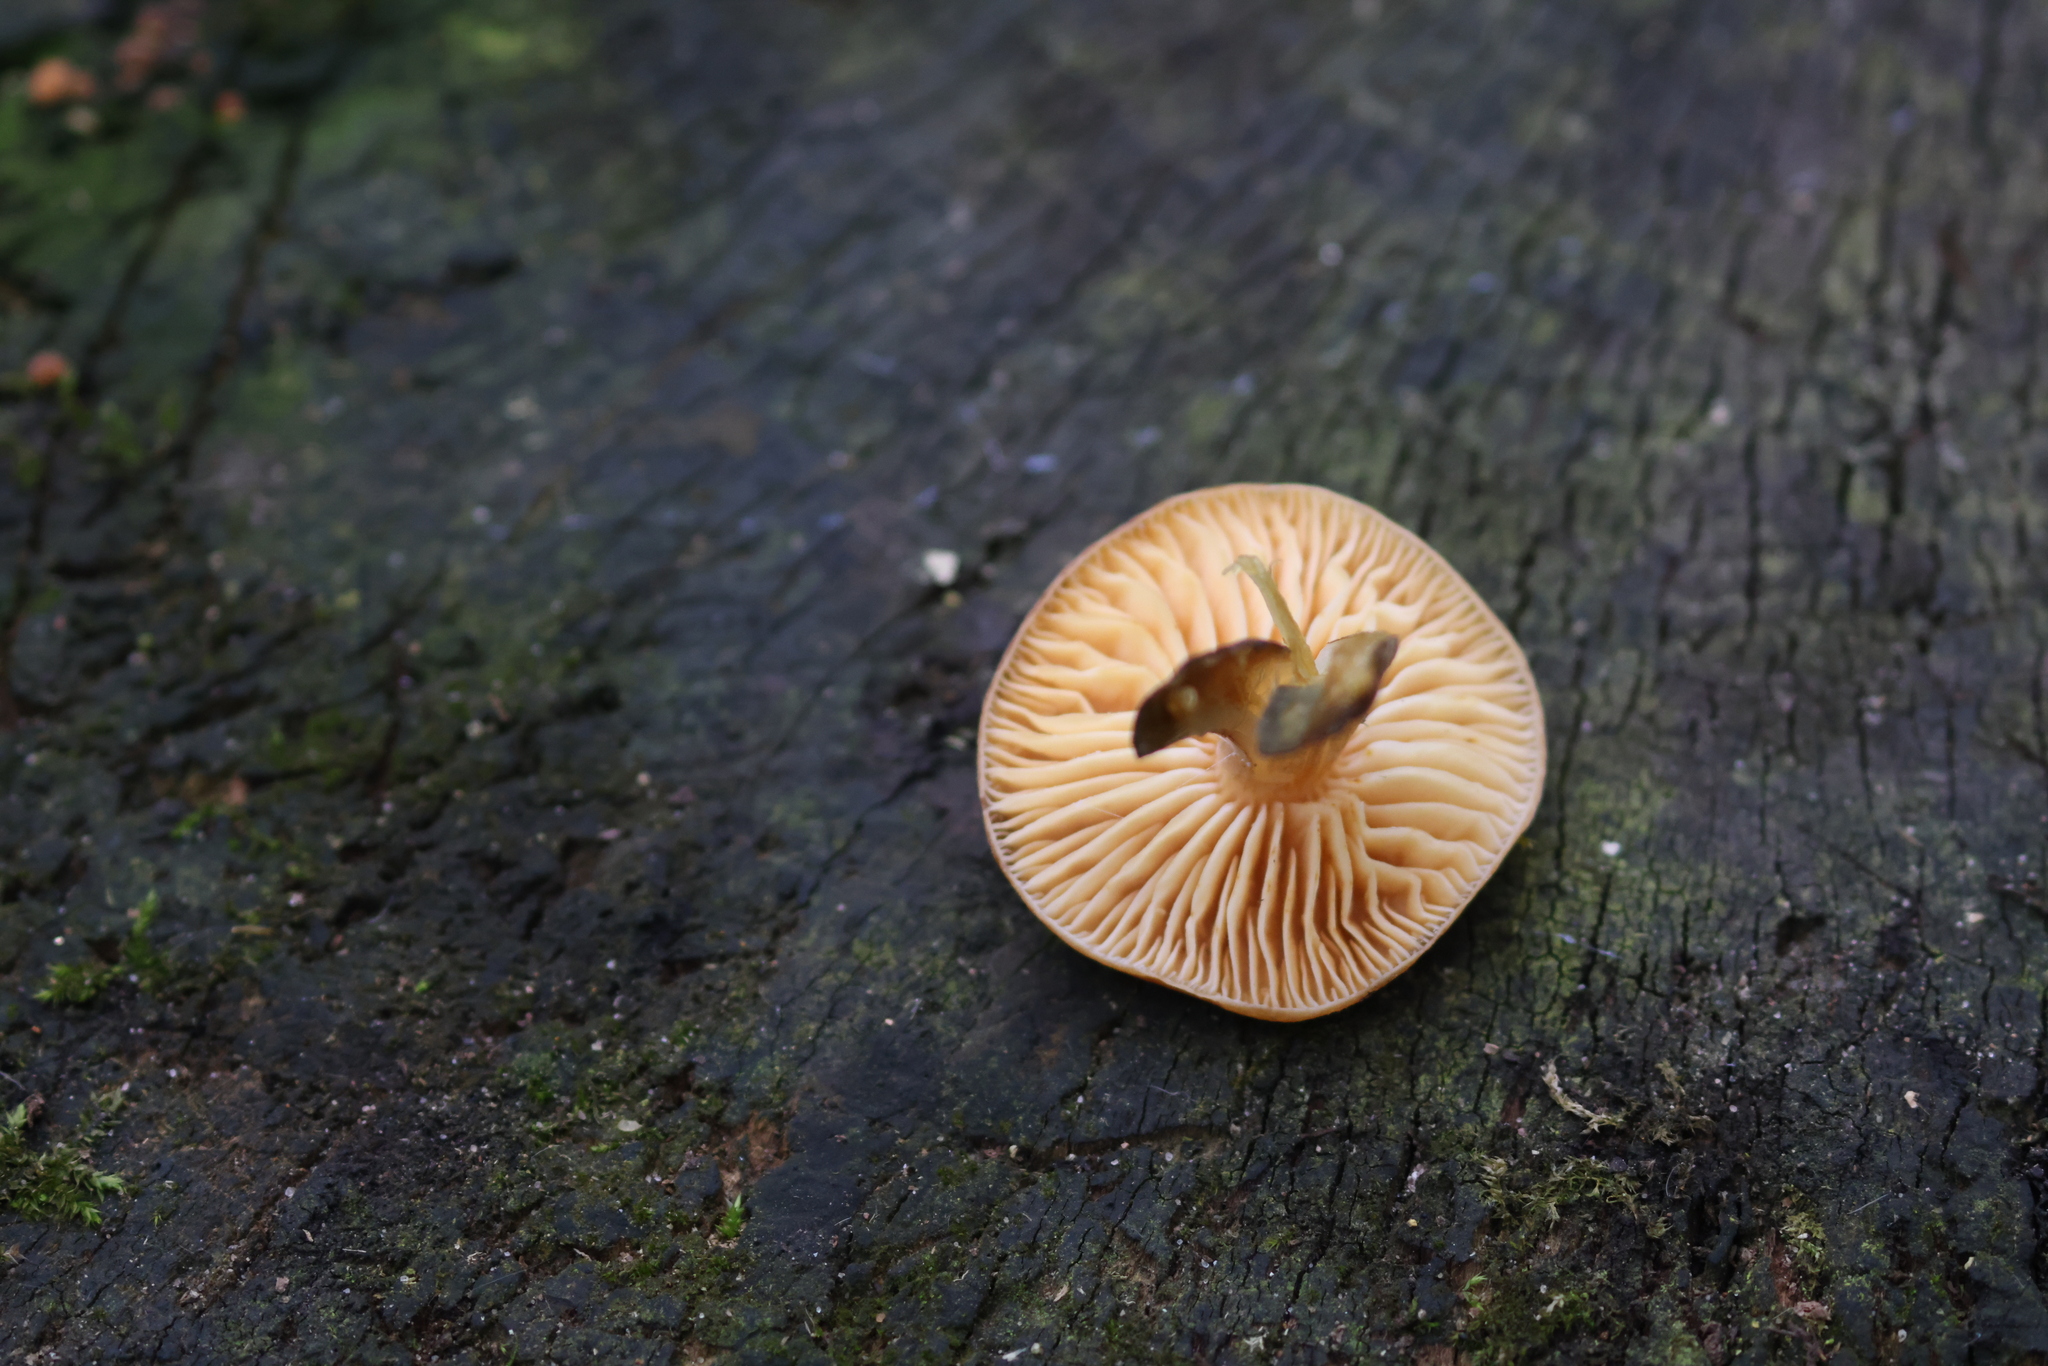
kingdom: Fungi
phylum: Basidiomycota
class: Agaricomycetes
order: Agaricales
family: Physalacriaceae
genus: Flammulina
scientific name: Flammulina
